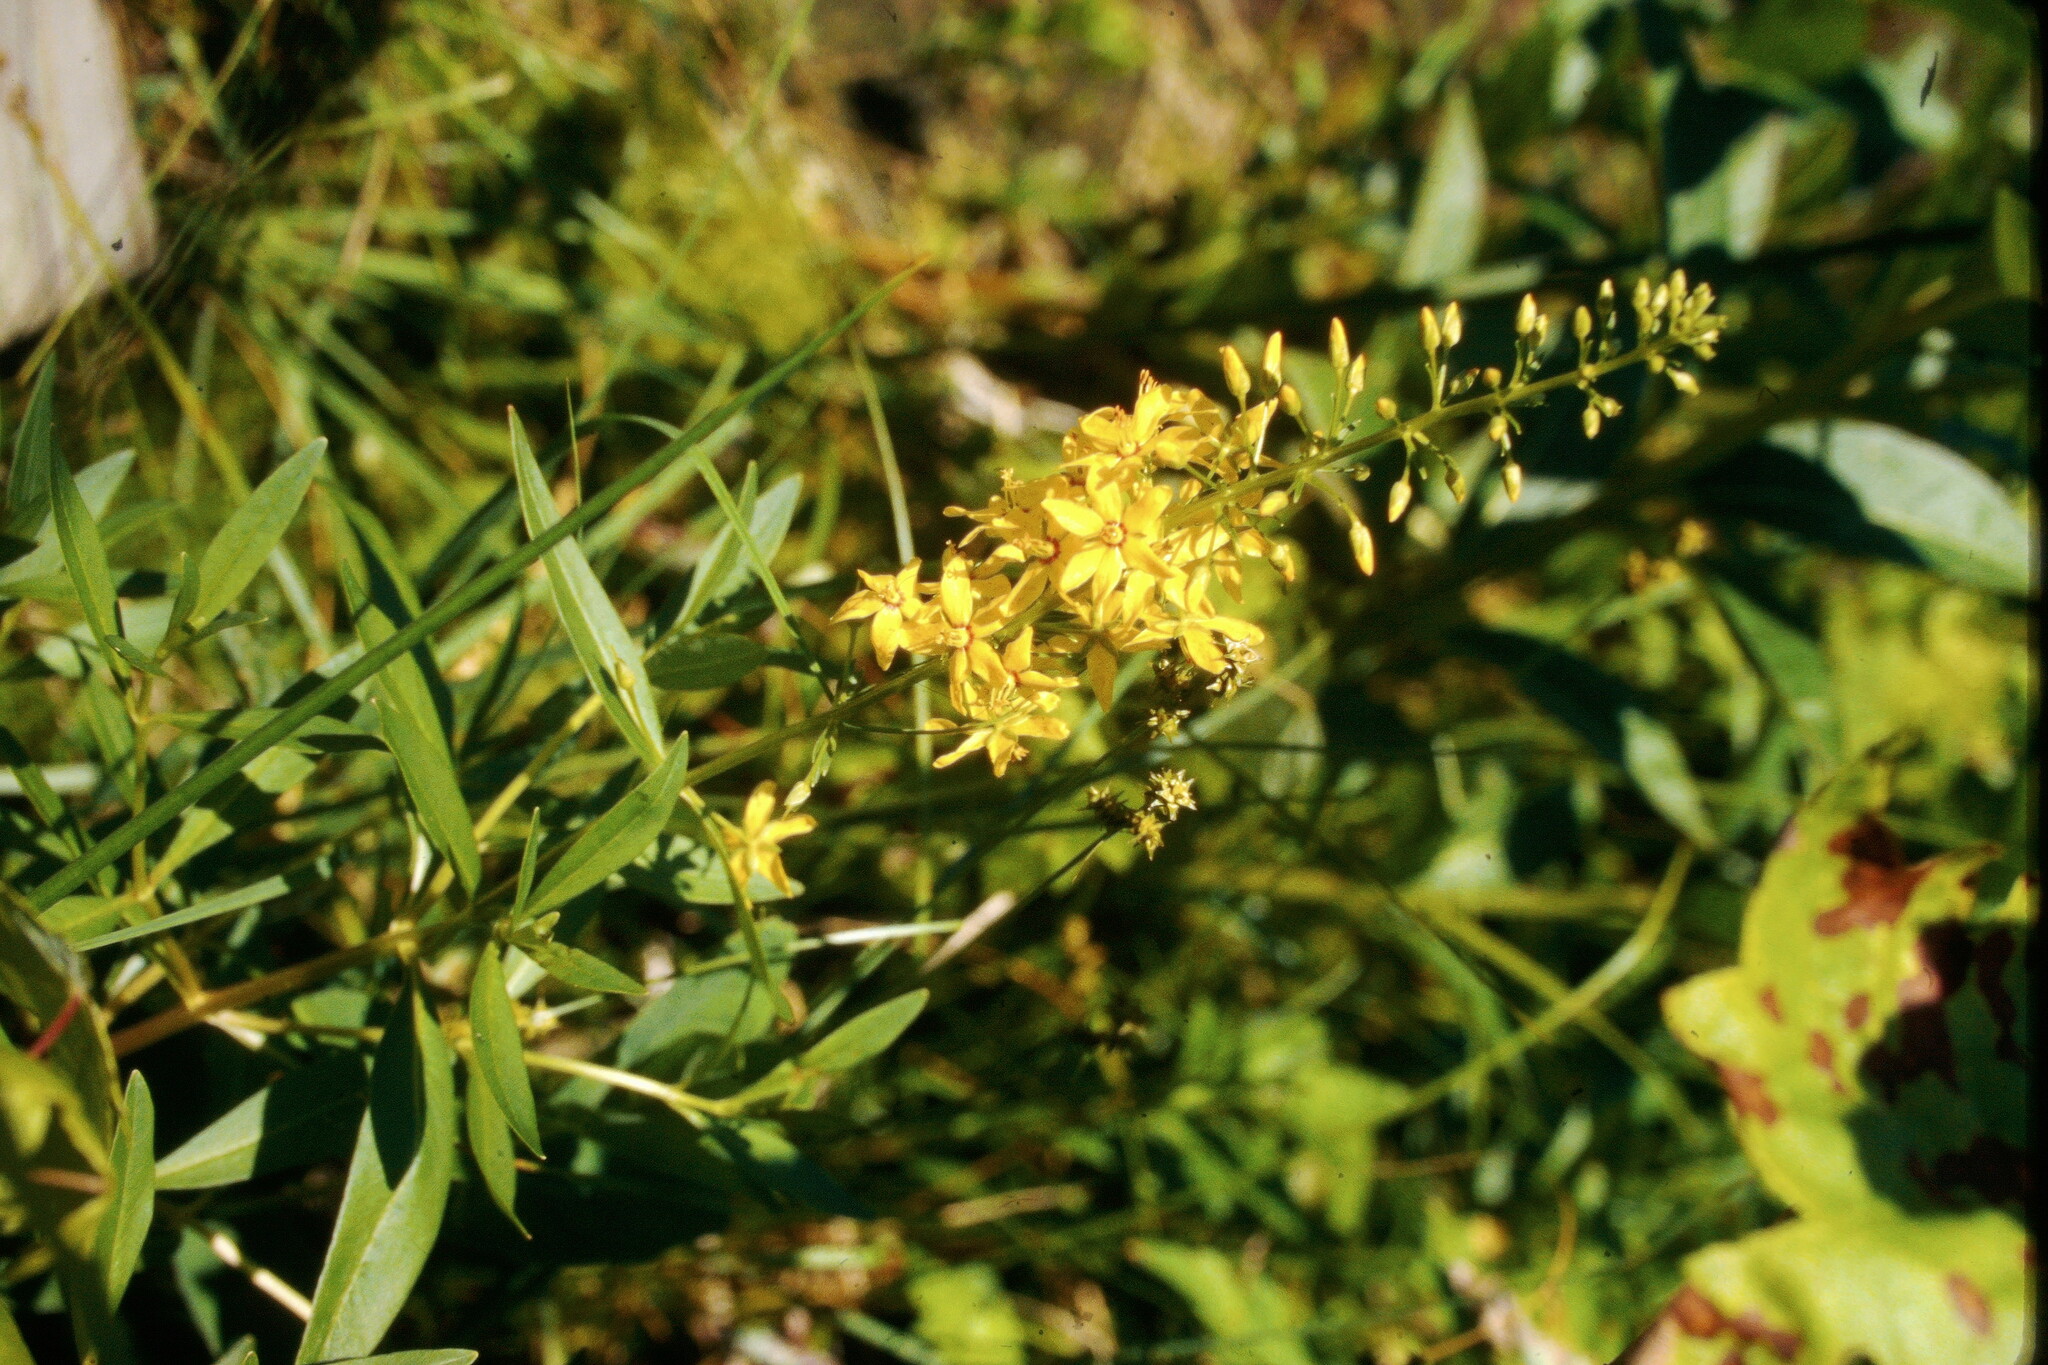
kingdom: Plantae
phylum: Tracheophyta
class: Magnoliopsida
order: Ericales
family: Primulaceae
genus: Lysimachia
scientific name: Lysimachia terrestris
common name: Lake loosestrife
